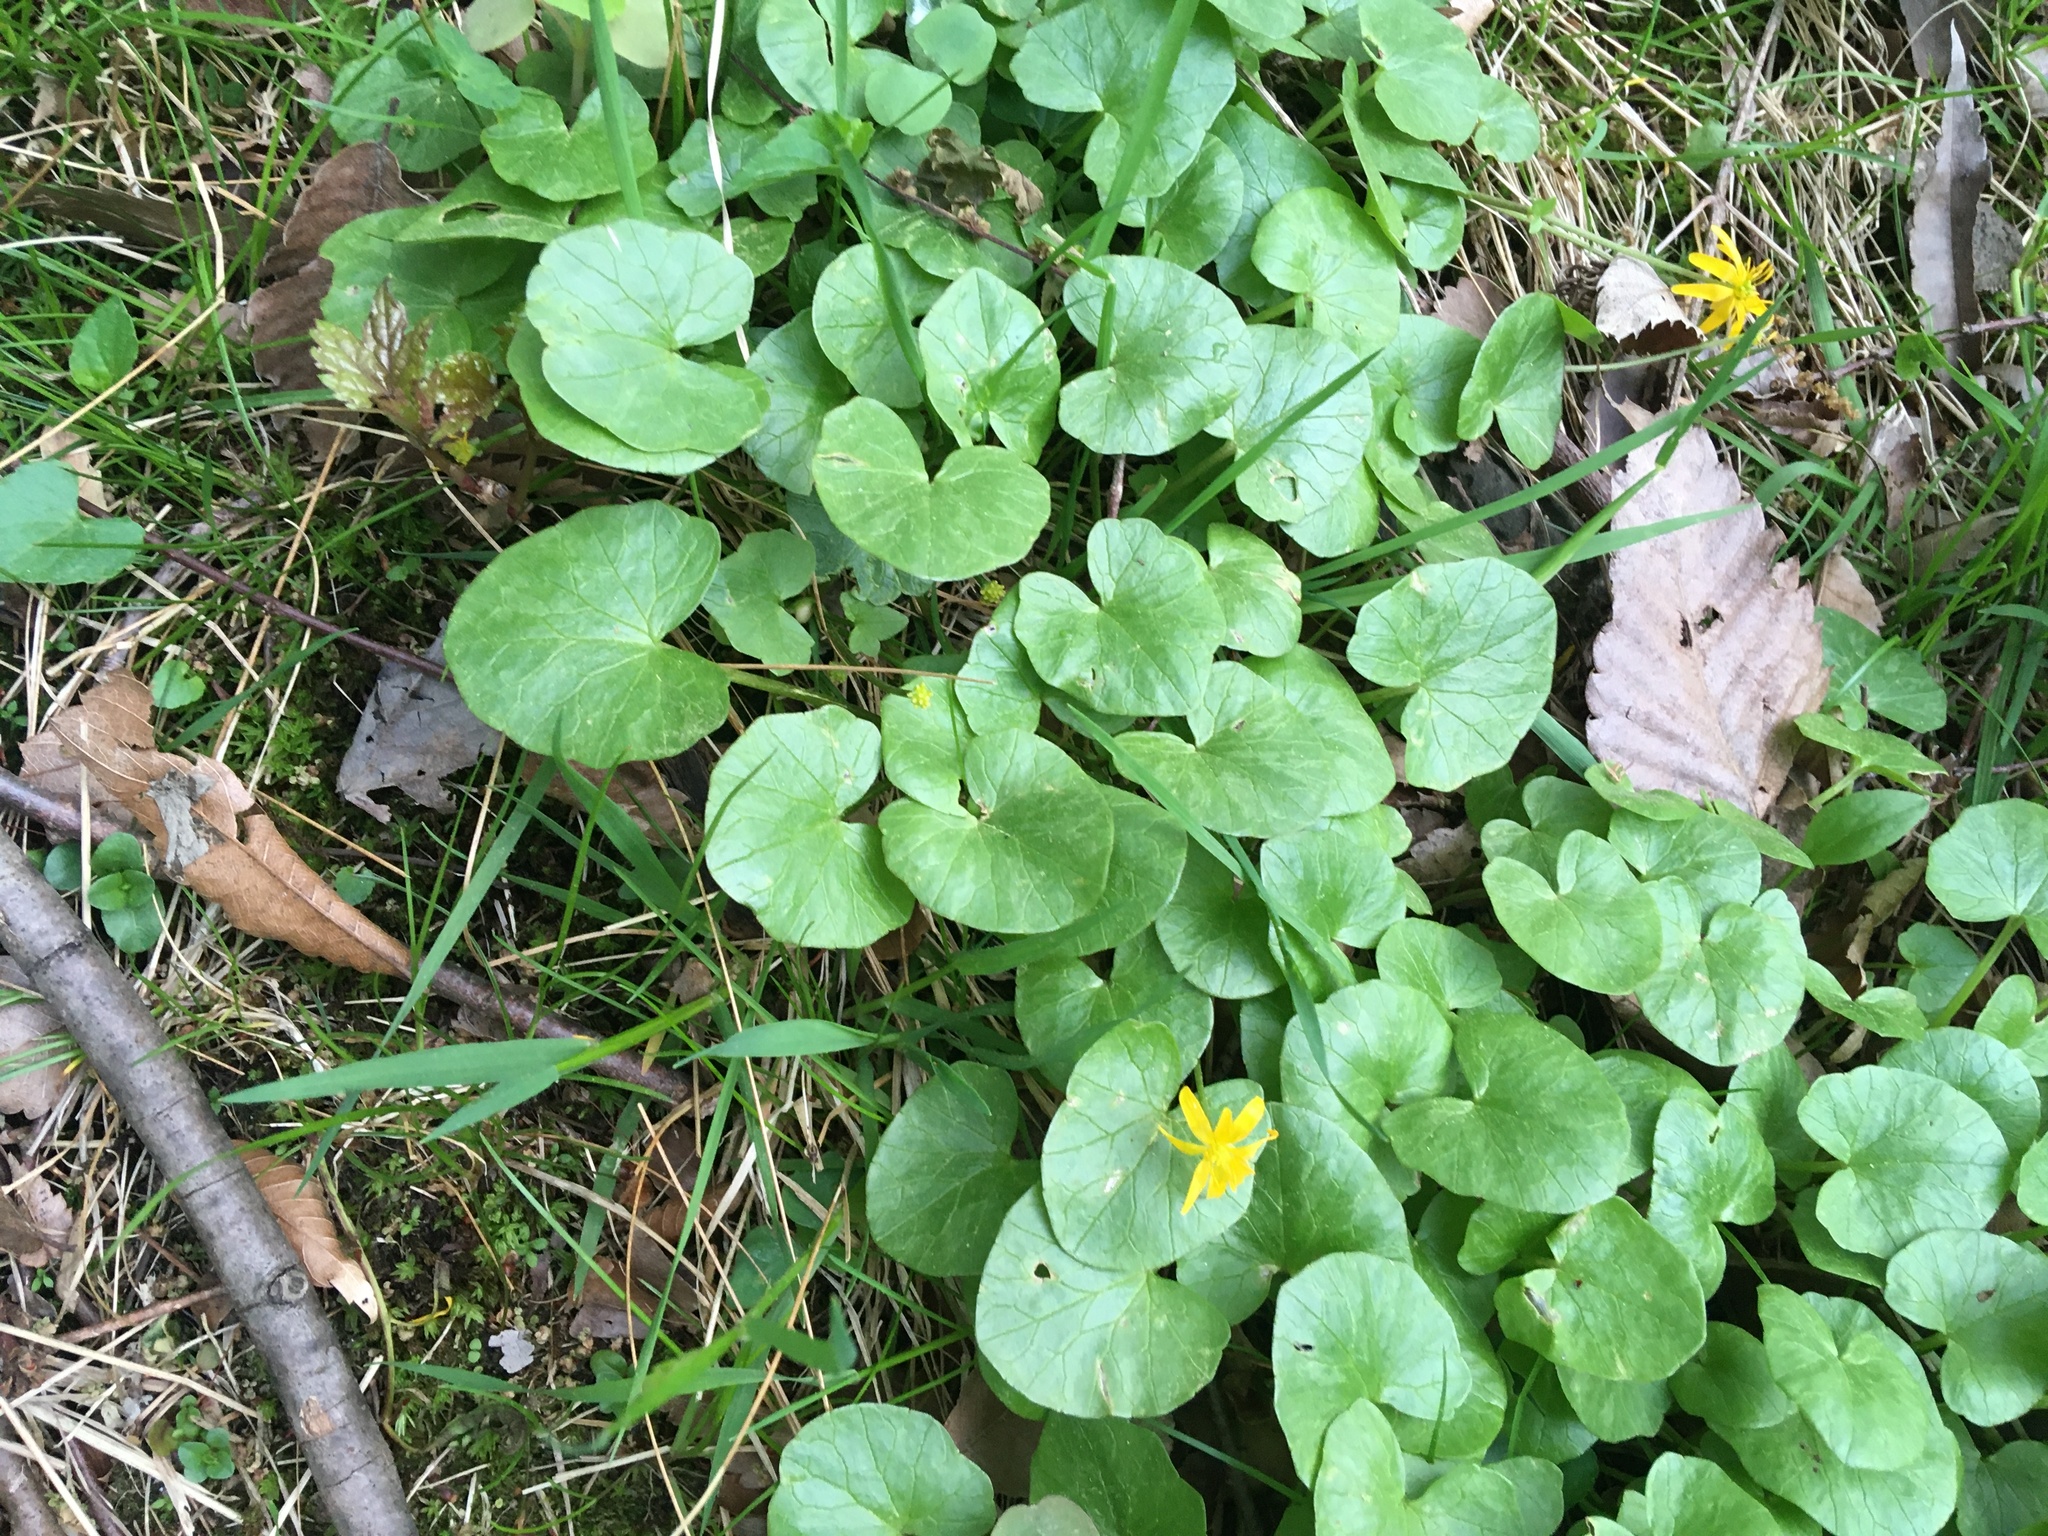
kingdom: Plantae
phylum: Tracheophyta
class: Magnoliopsida
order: Ranunculales
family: Ranunculaceae
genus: Ficaria
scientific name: Ficaria verna
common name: Lesser celandine
